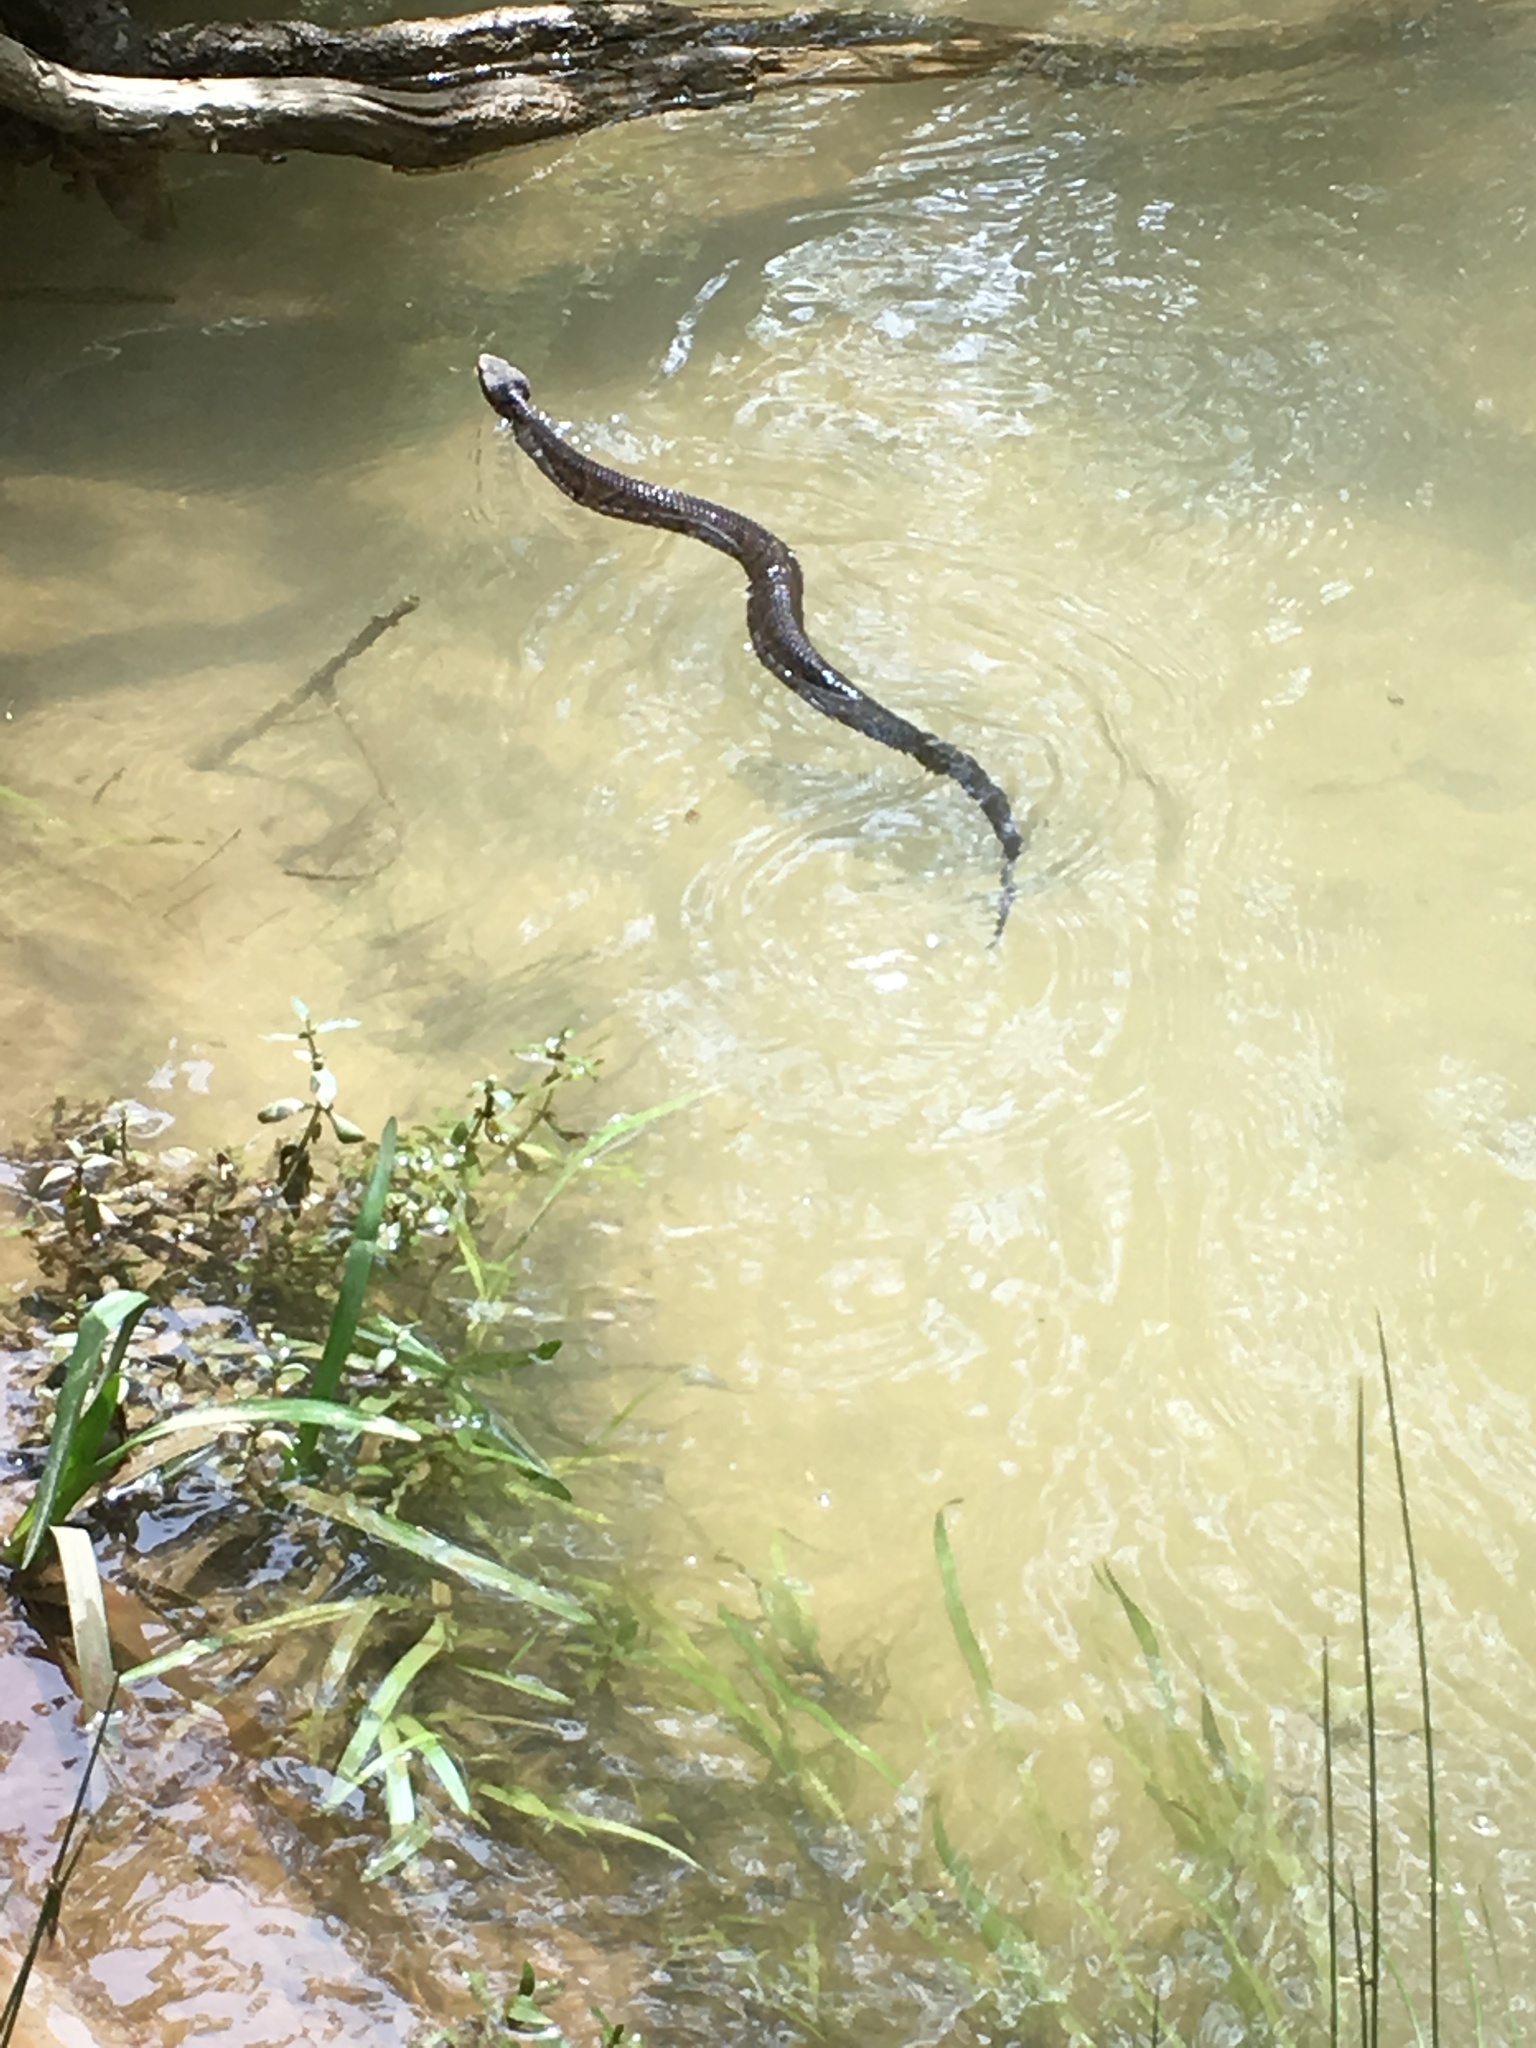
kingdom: Animalia
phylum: Chordata
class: Squamata
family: Viperidae
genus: Agkistrodon
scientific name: Agkistrodon piscivorus
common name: Cottonmouth
